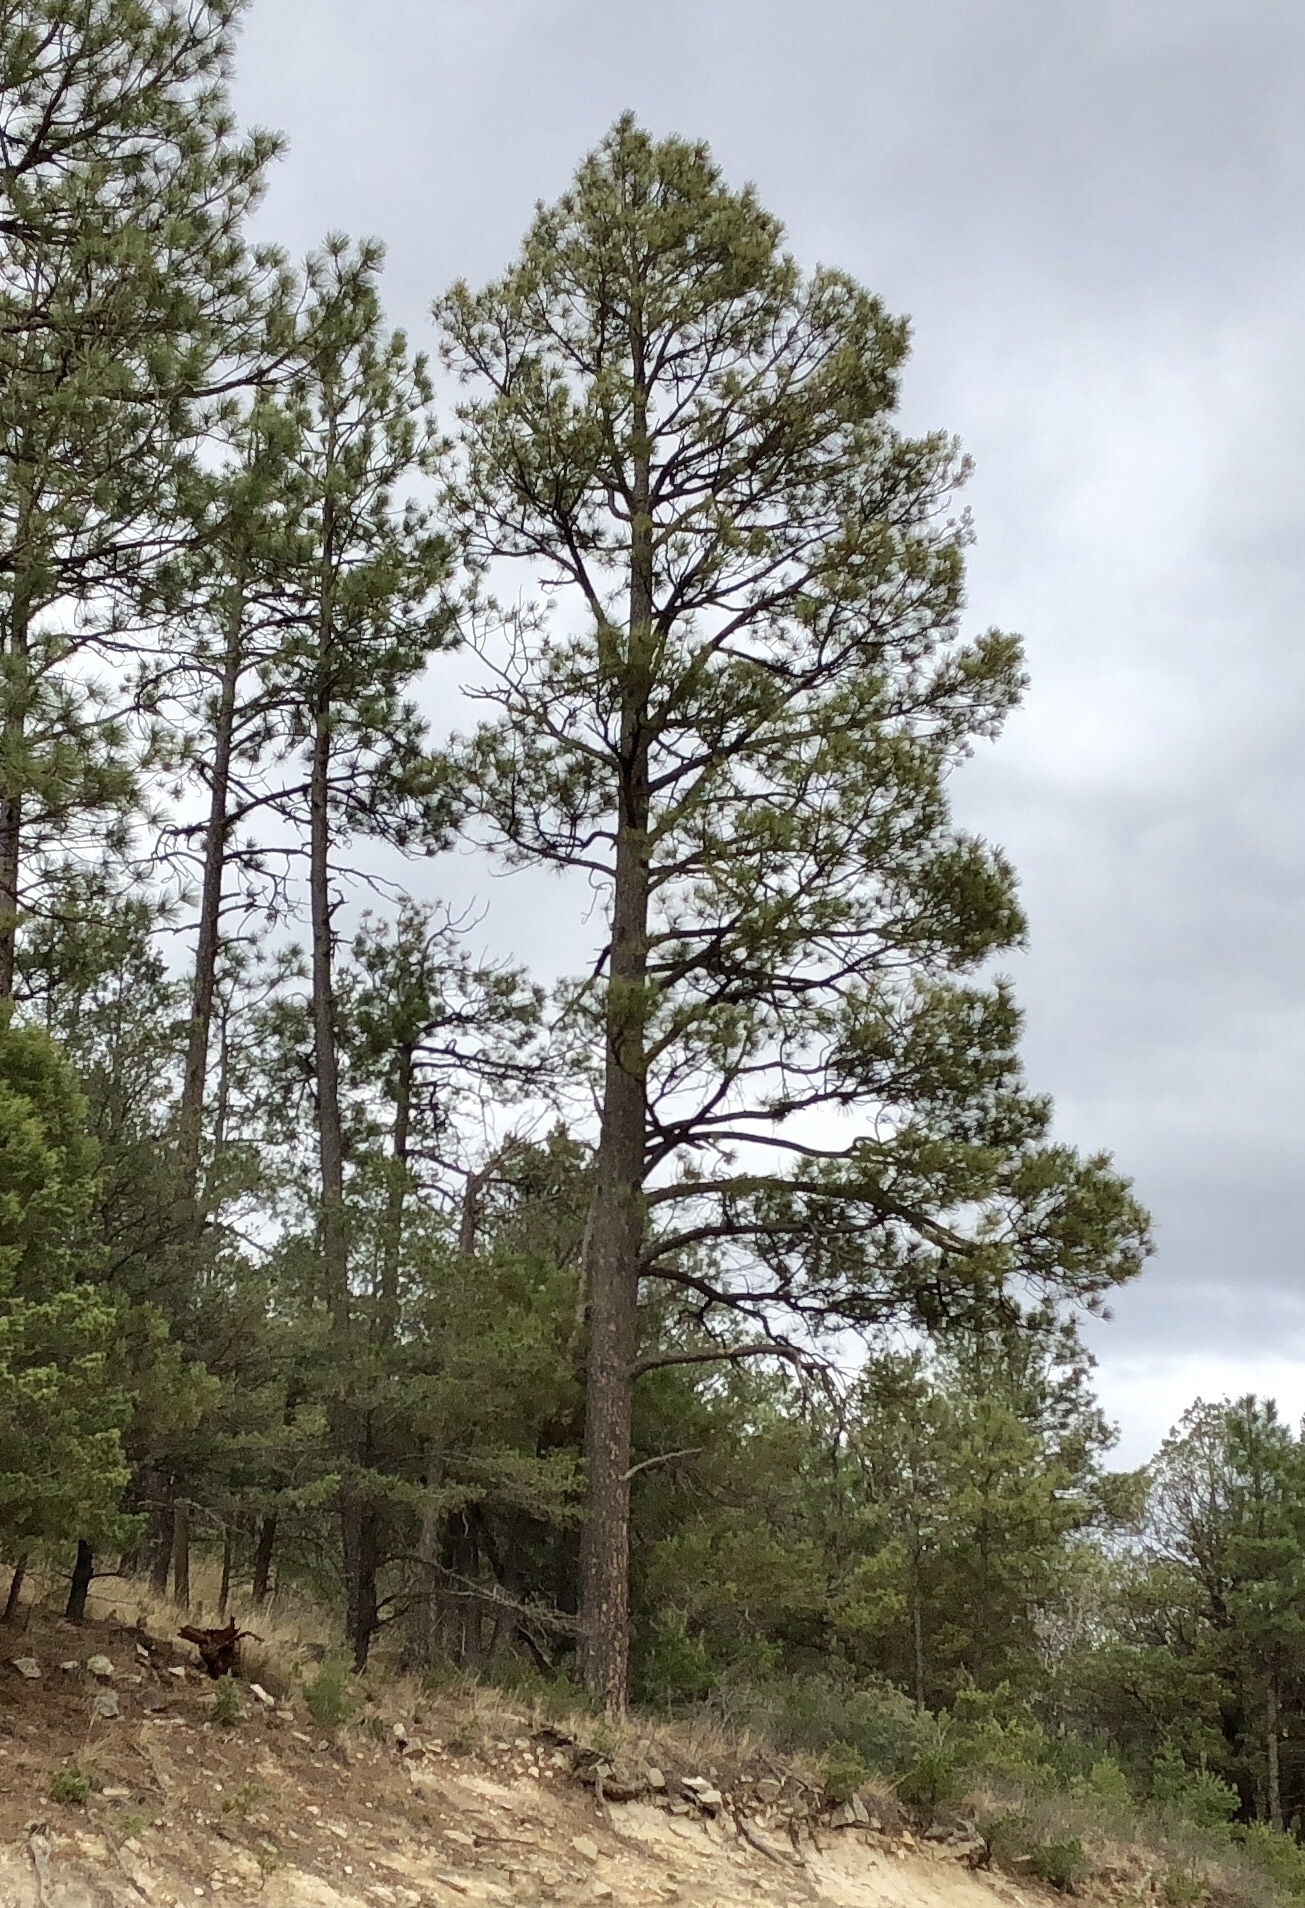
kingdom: Plantae
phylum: Tracheophyta
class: Pinopsida
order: Pinales
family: Pinaceae
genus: Pinus
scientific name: Pinus ponderosa
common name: Western yellow-pine
